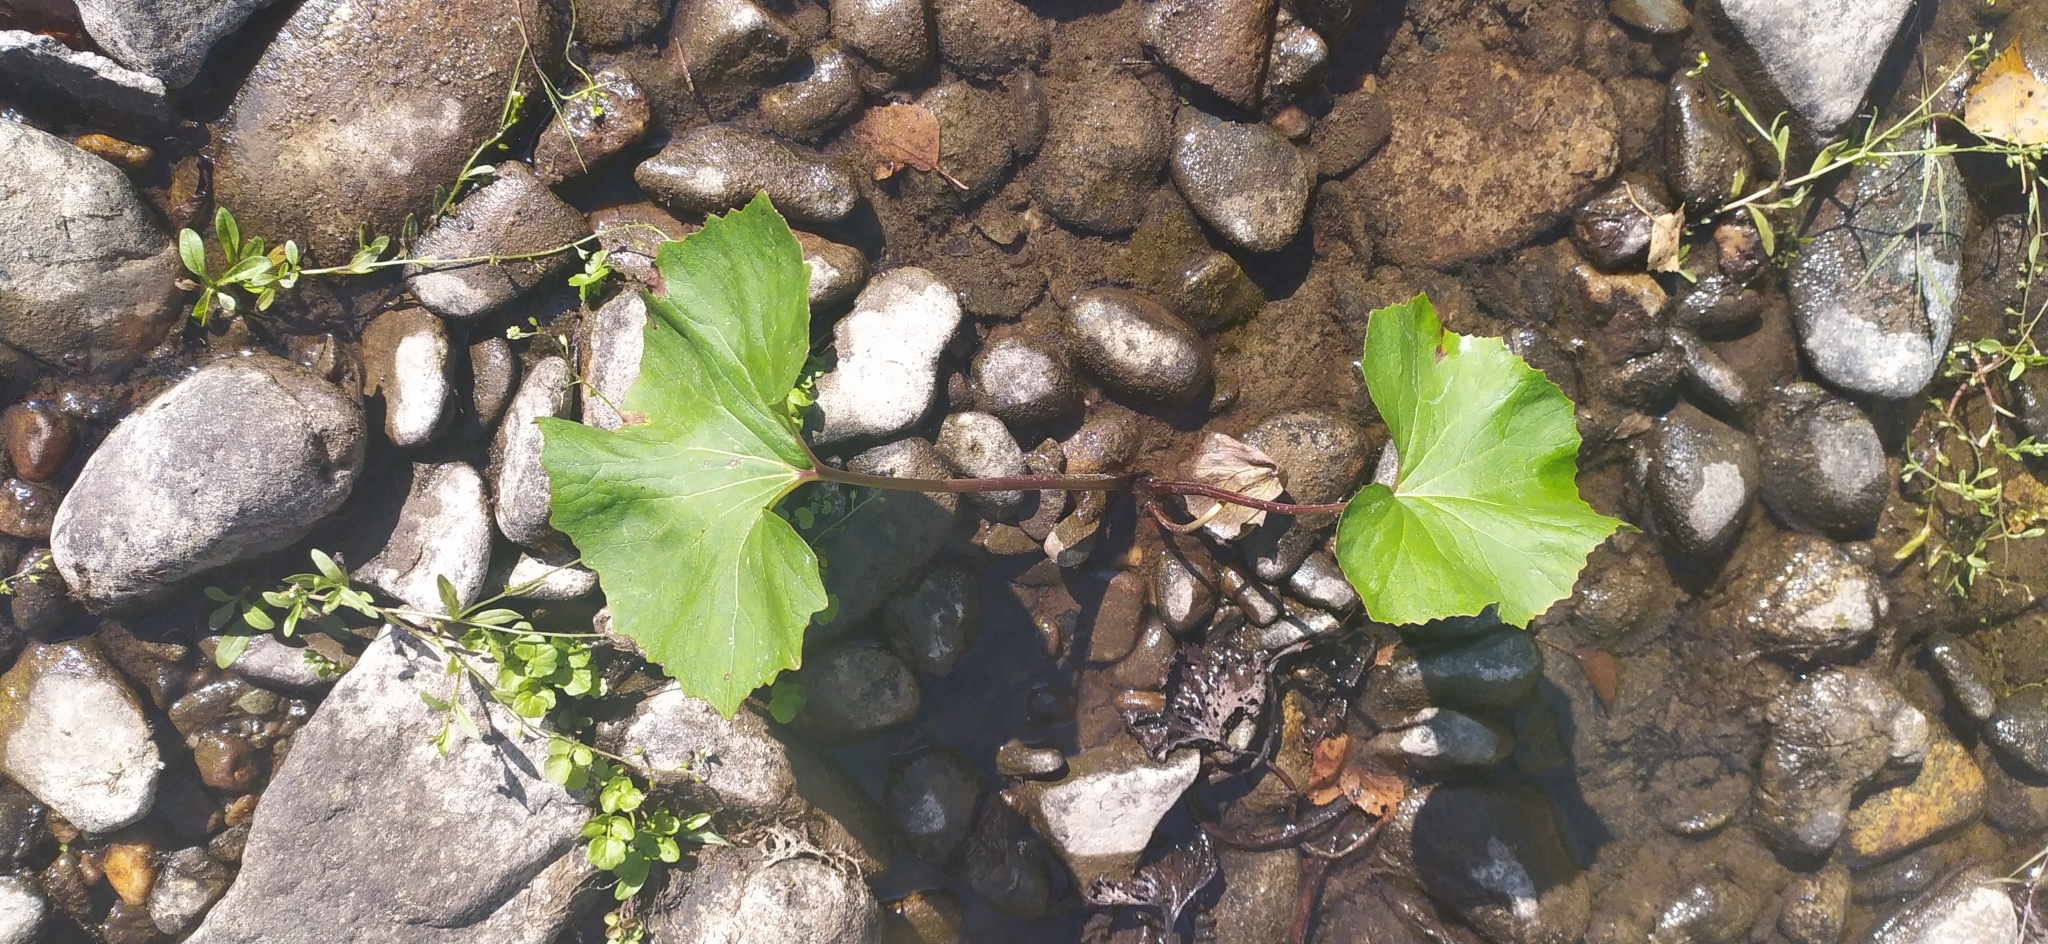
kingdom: Plantae
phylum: Tracheophyta
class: Magnoliopsida
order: Asterales
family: Asteraceae
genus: Petasites
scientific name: Petasites radiatus
